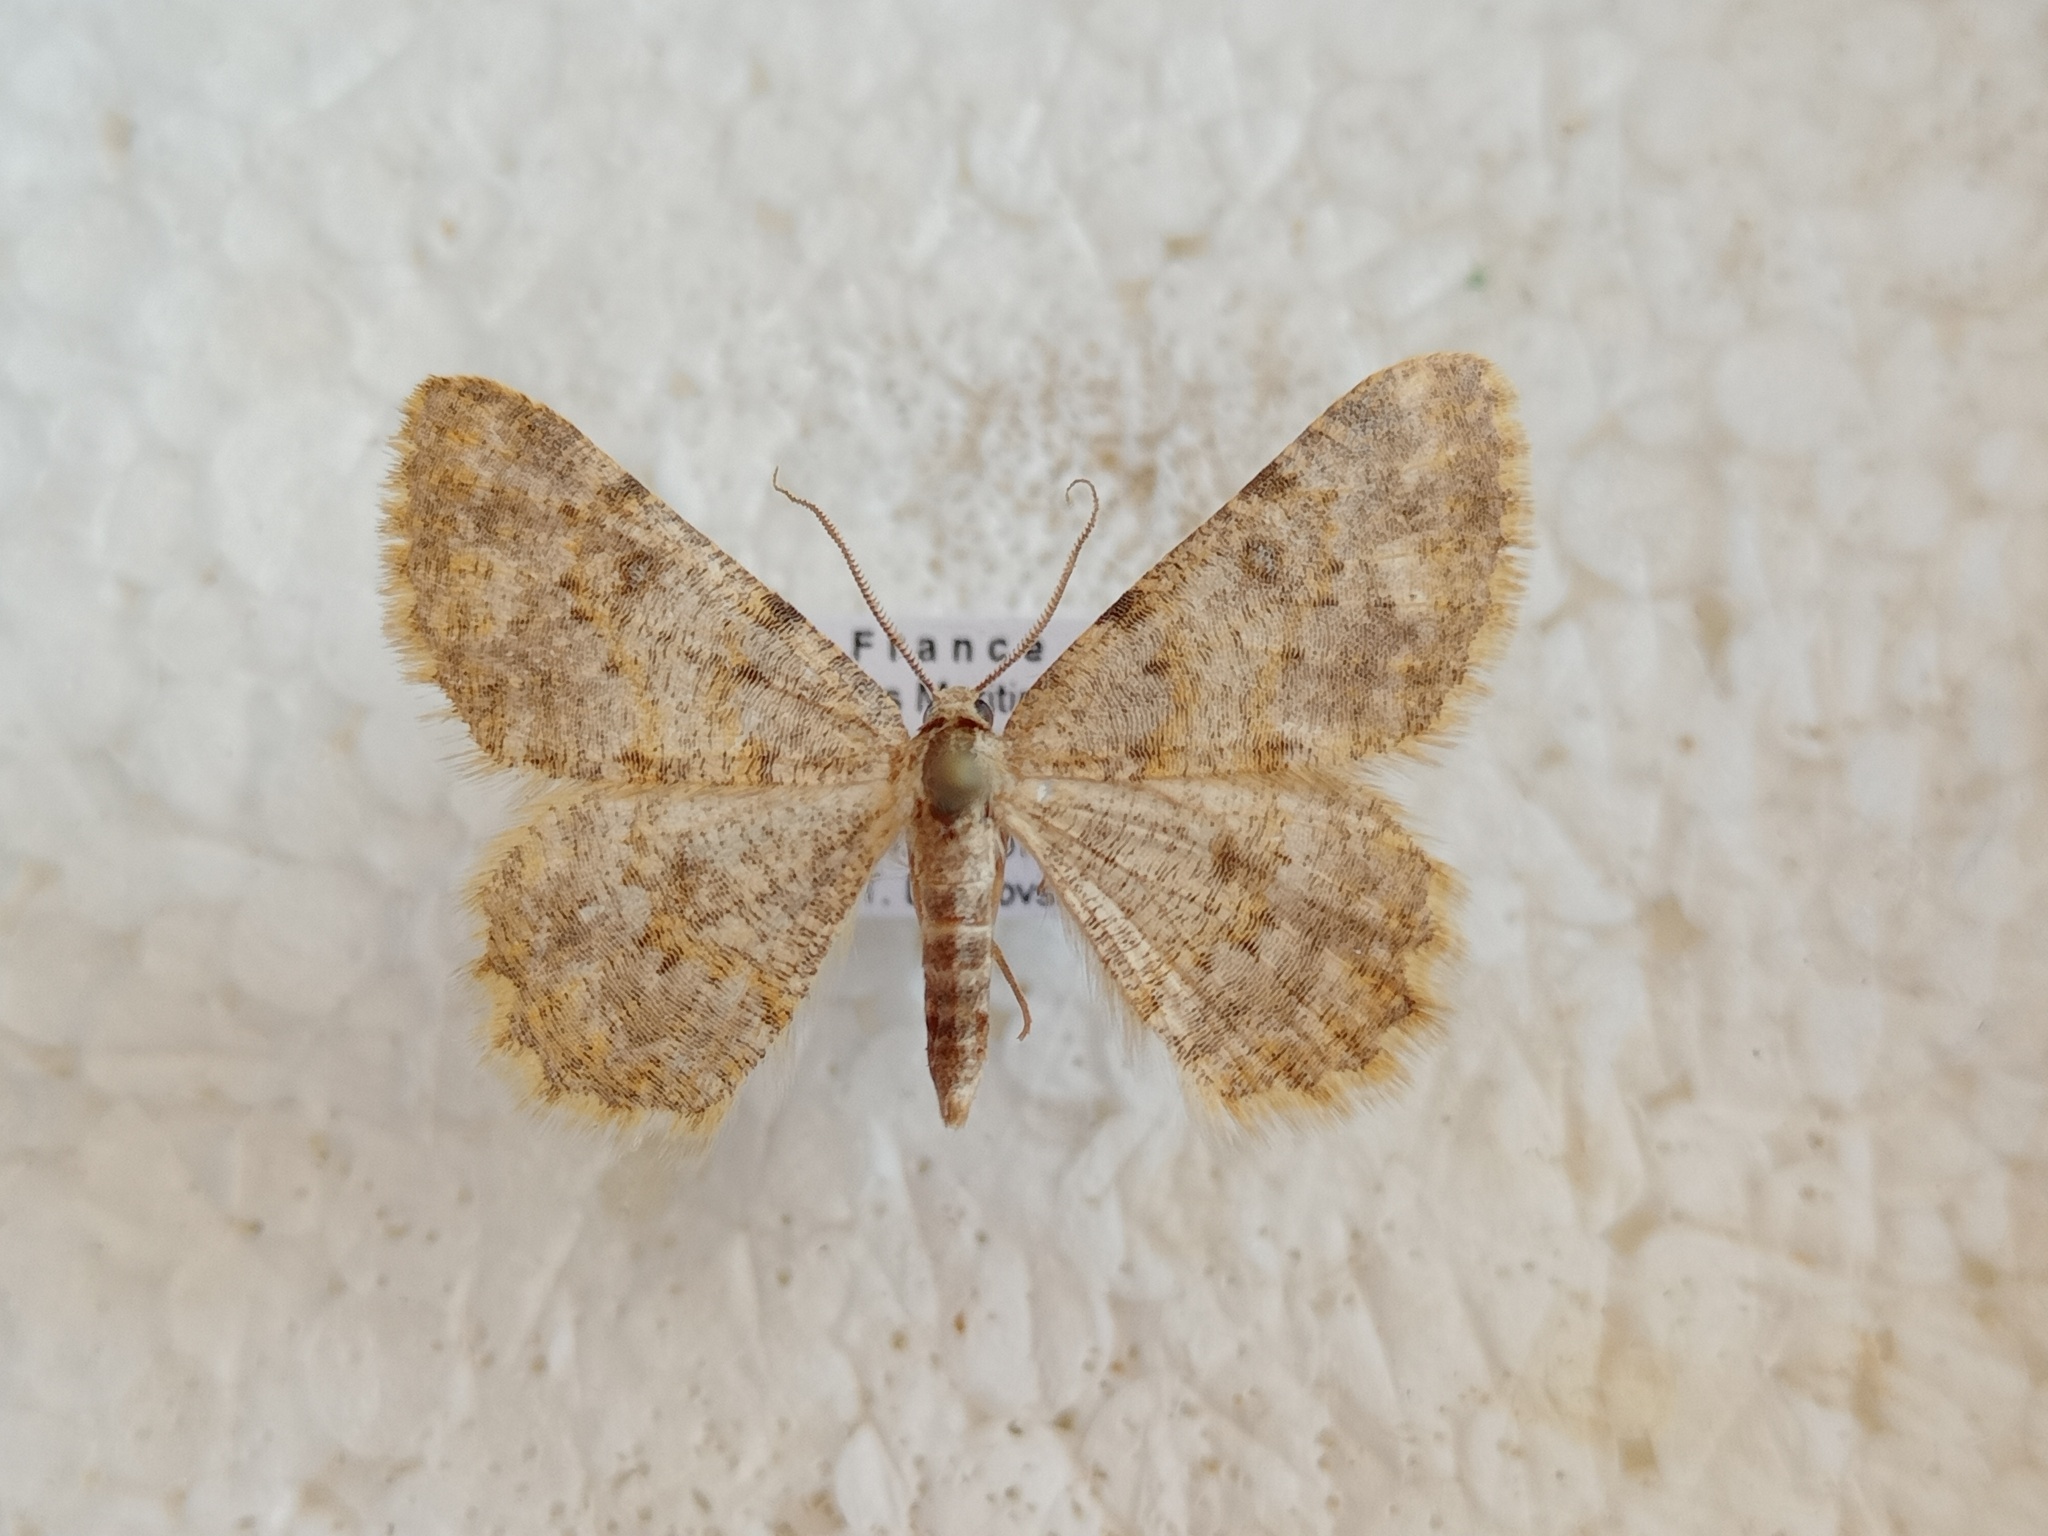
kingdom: Animalia
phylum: Arthropoda
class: Insecta
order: Lepidoptera
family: Geometridae
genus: Charissa
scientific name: Charissa mucidaria
